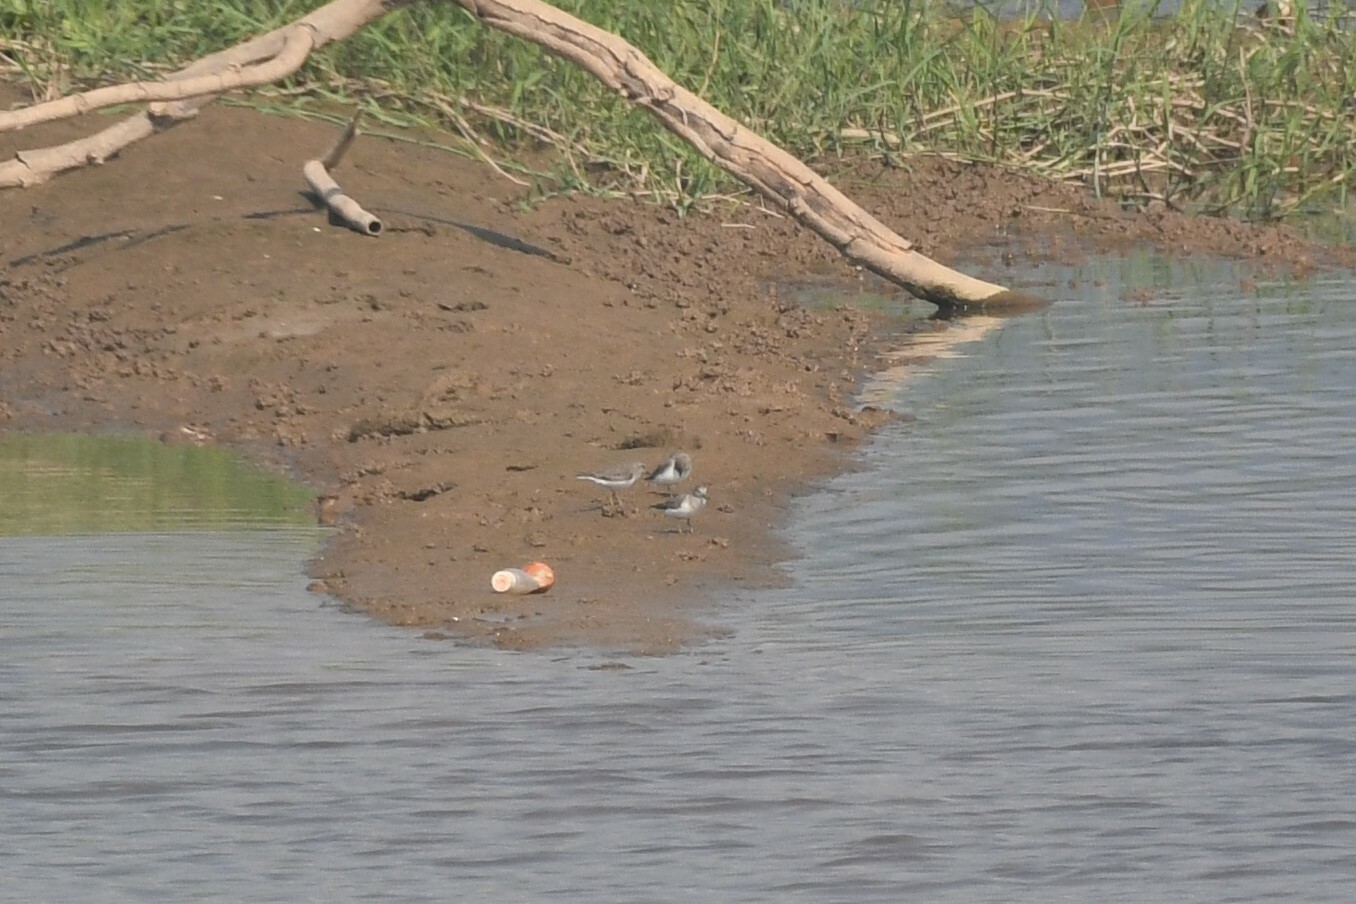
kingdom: Animalia
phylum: Chordata
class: Aves
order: Charadriiformes
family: Scolopacidae
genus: Calidris
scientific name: Calidris temminckii
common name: Temminck's stint
